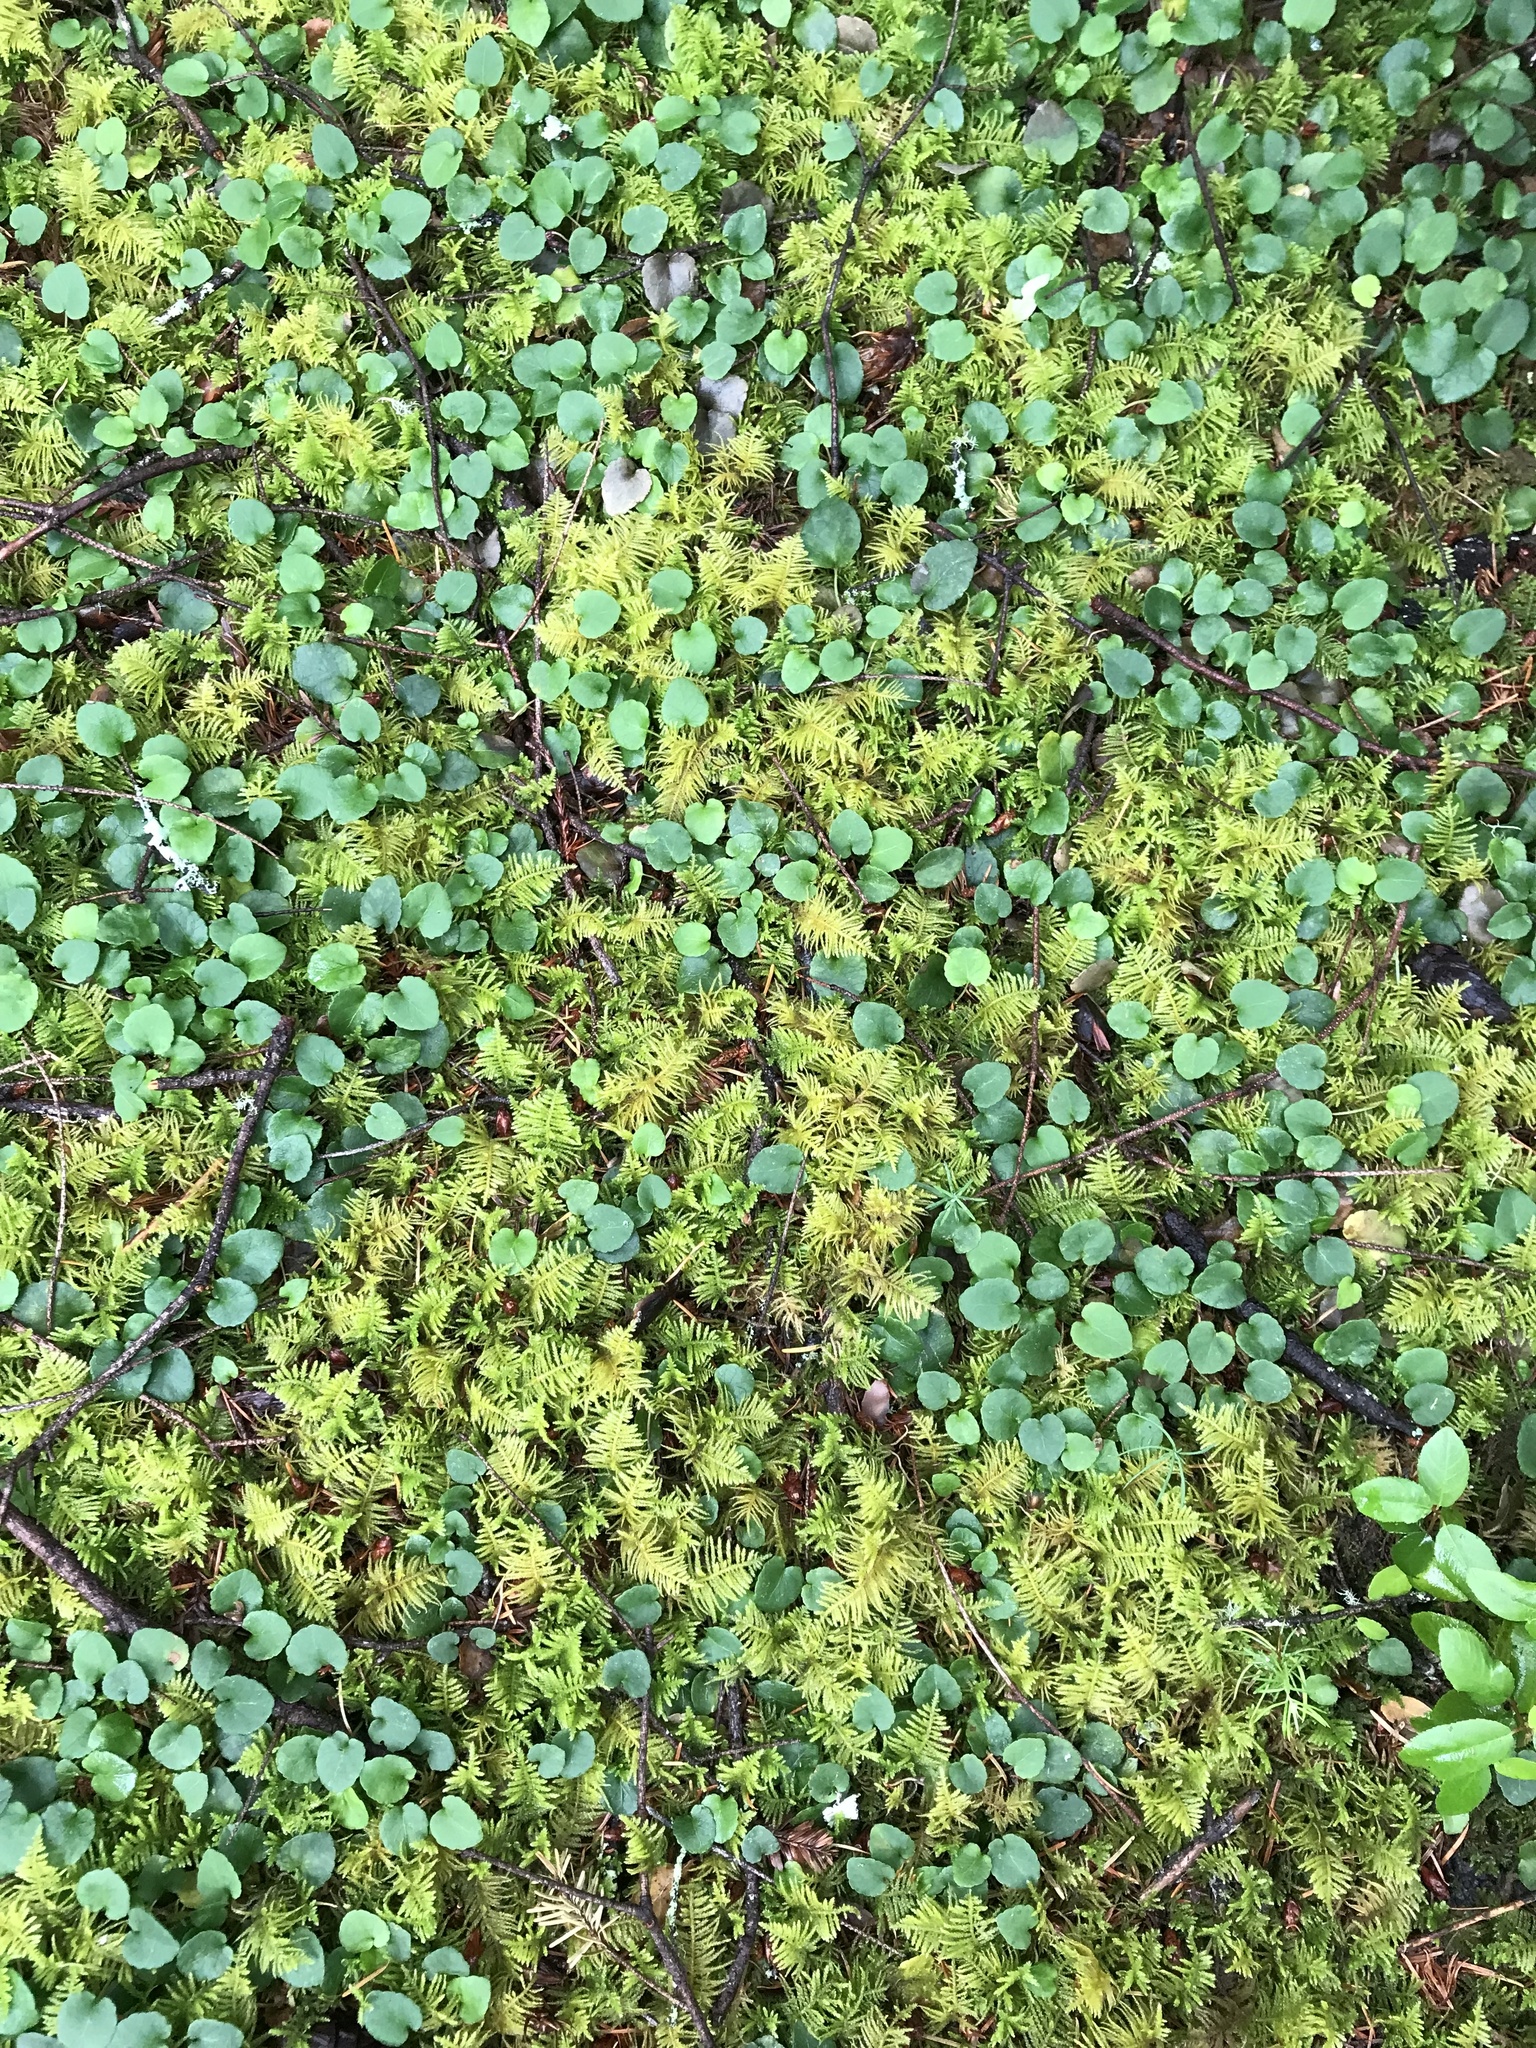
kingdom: Plantae
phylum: Tracheophyta
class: Magnoliopsida
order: Malpighiales
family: Violaceae
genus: Viola
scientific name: Viola sempervirens
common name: Evergreen violet
